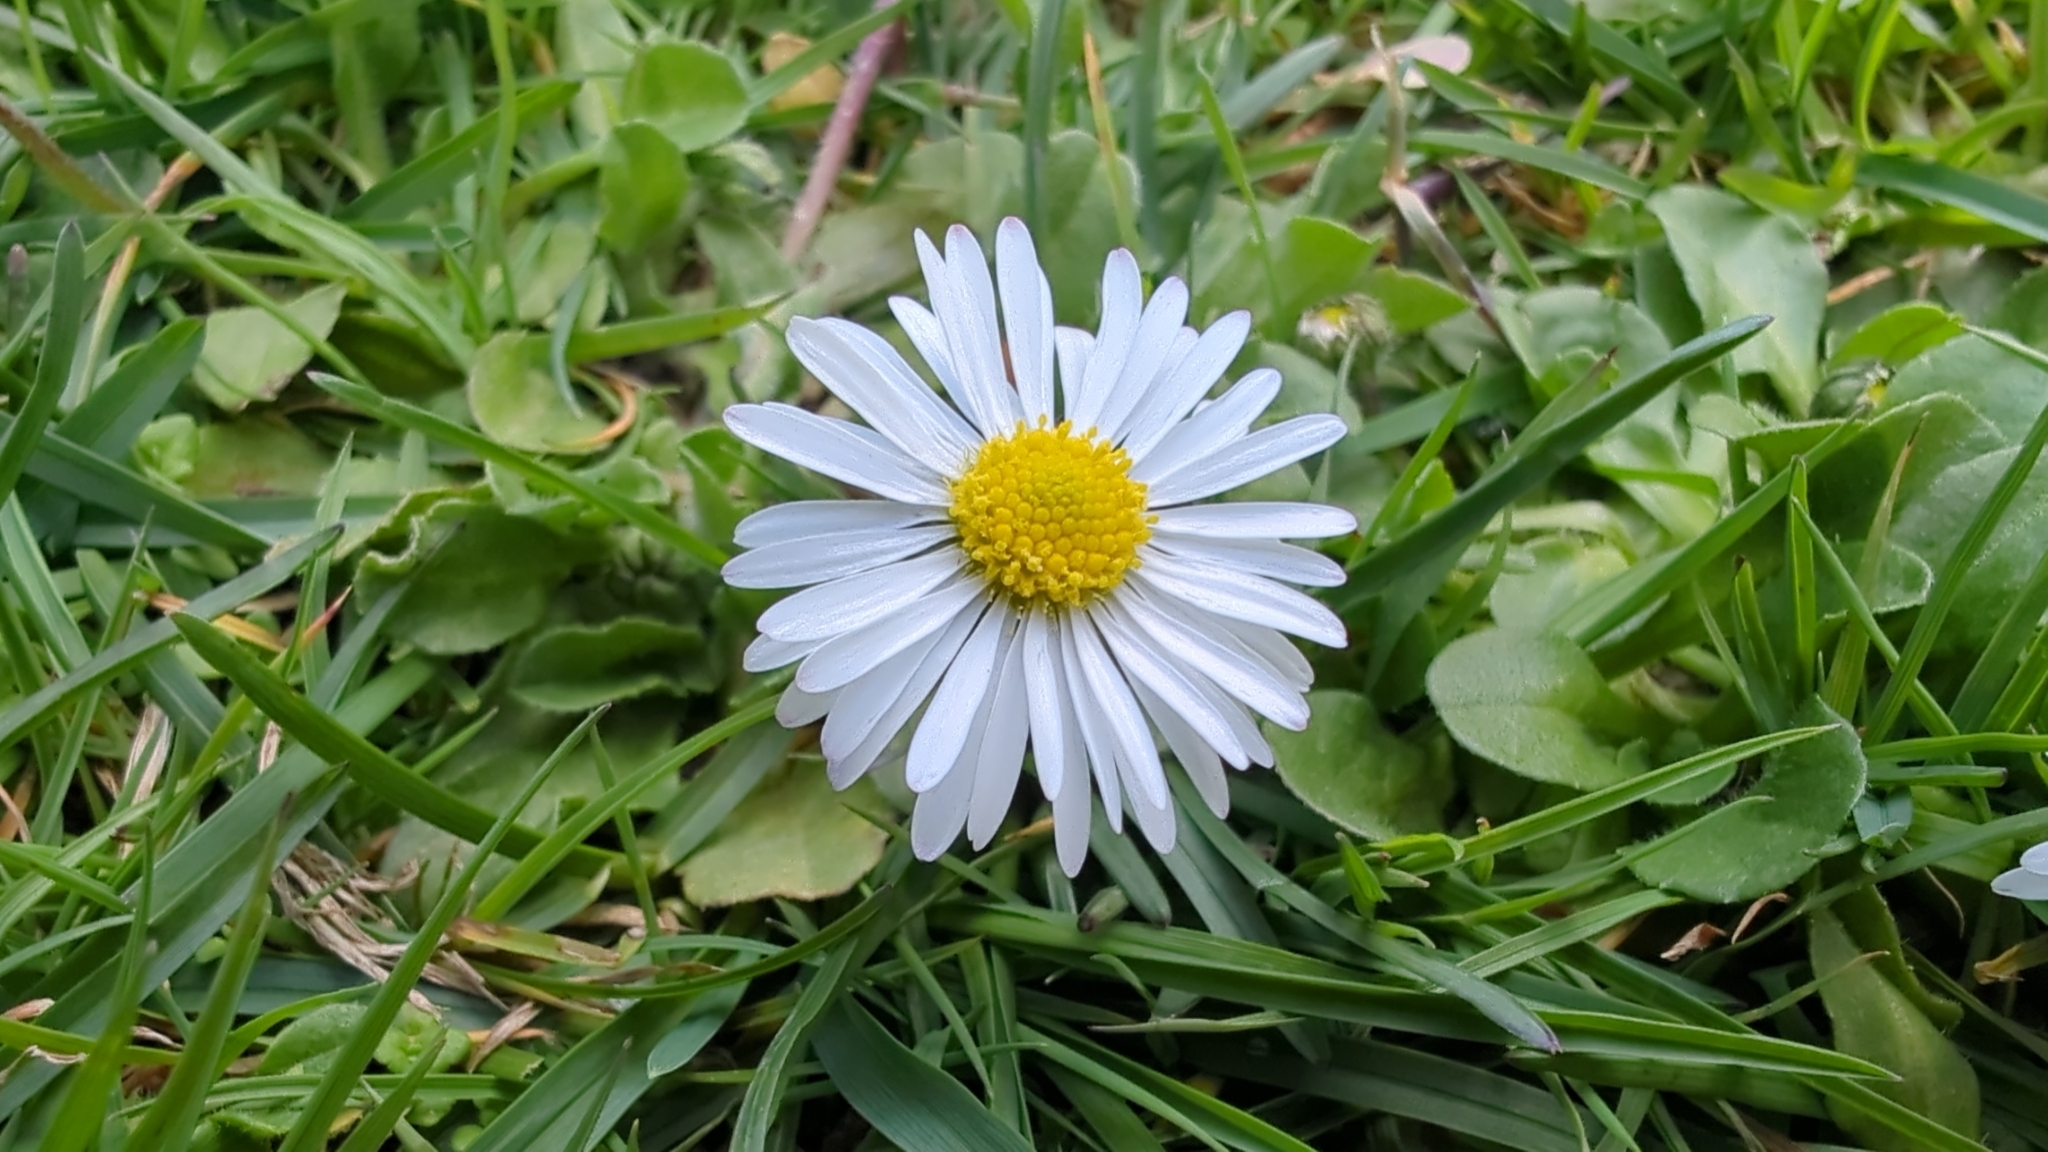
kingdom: Plantae
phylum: Tracheophyta
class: Magnoliopsida
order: Asterales
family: Asteraceae
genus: Bellis
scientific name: Bellis perennis
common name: Lawndaisy
